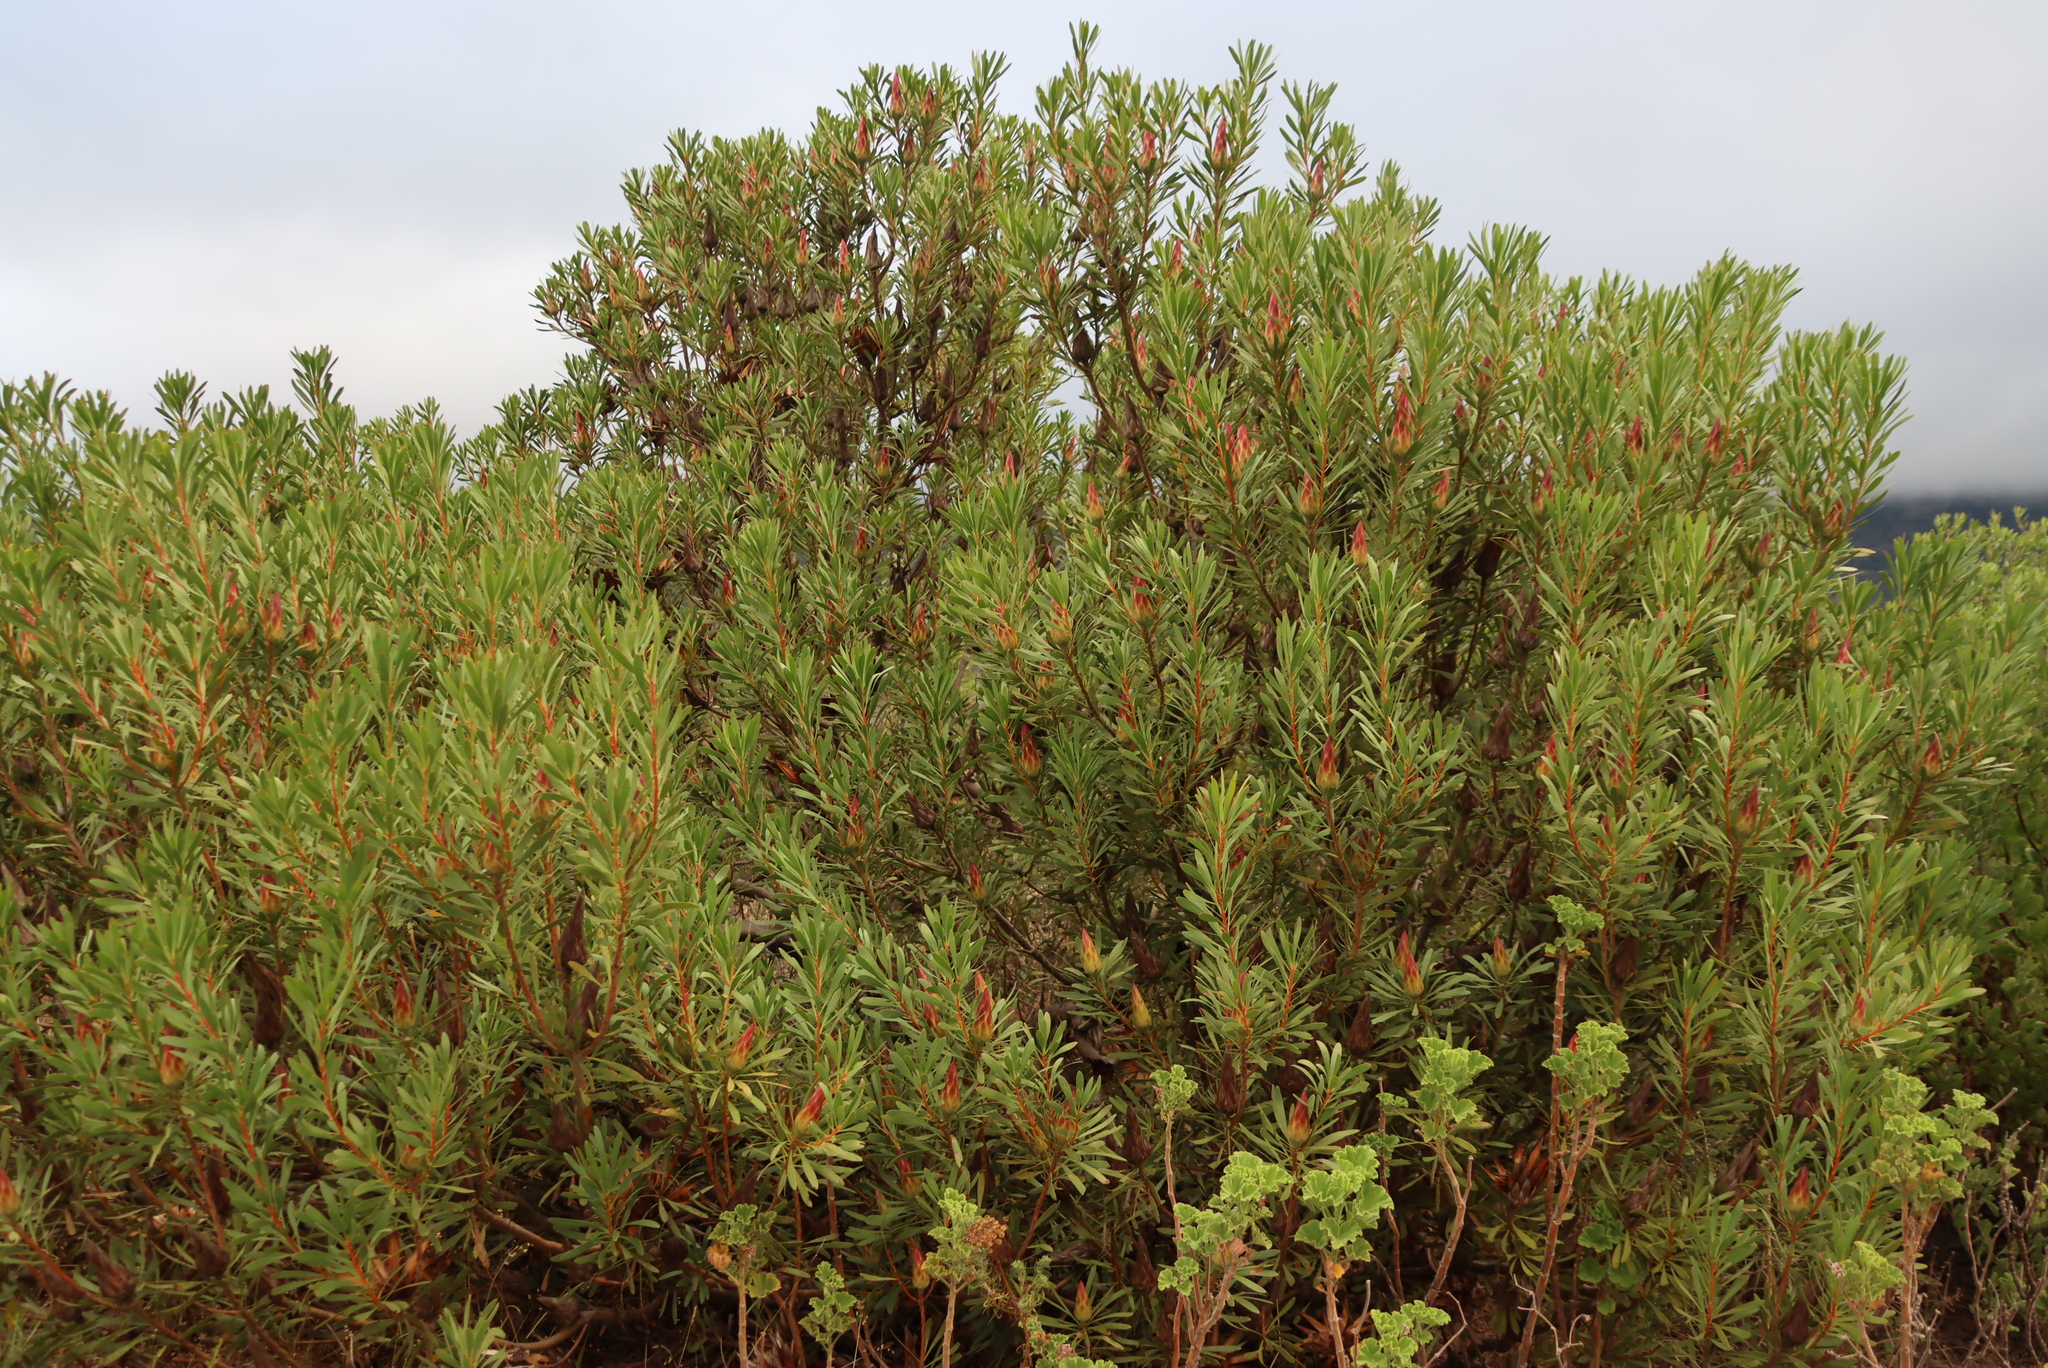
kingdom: Plantae
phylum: Tracheophyta
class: Magnoliopsida
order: Proteales
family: Proteaceae
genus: Protea
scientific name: Protea repens
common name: Sugarbush
